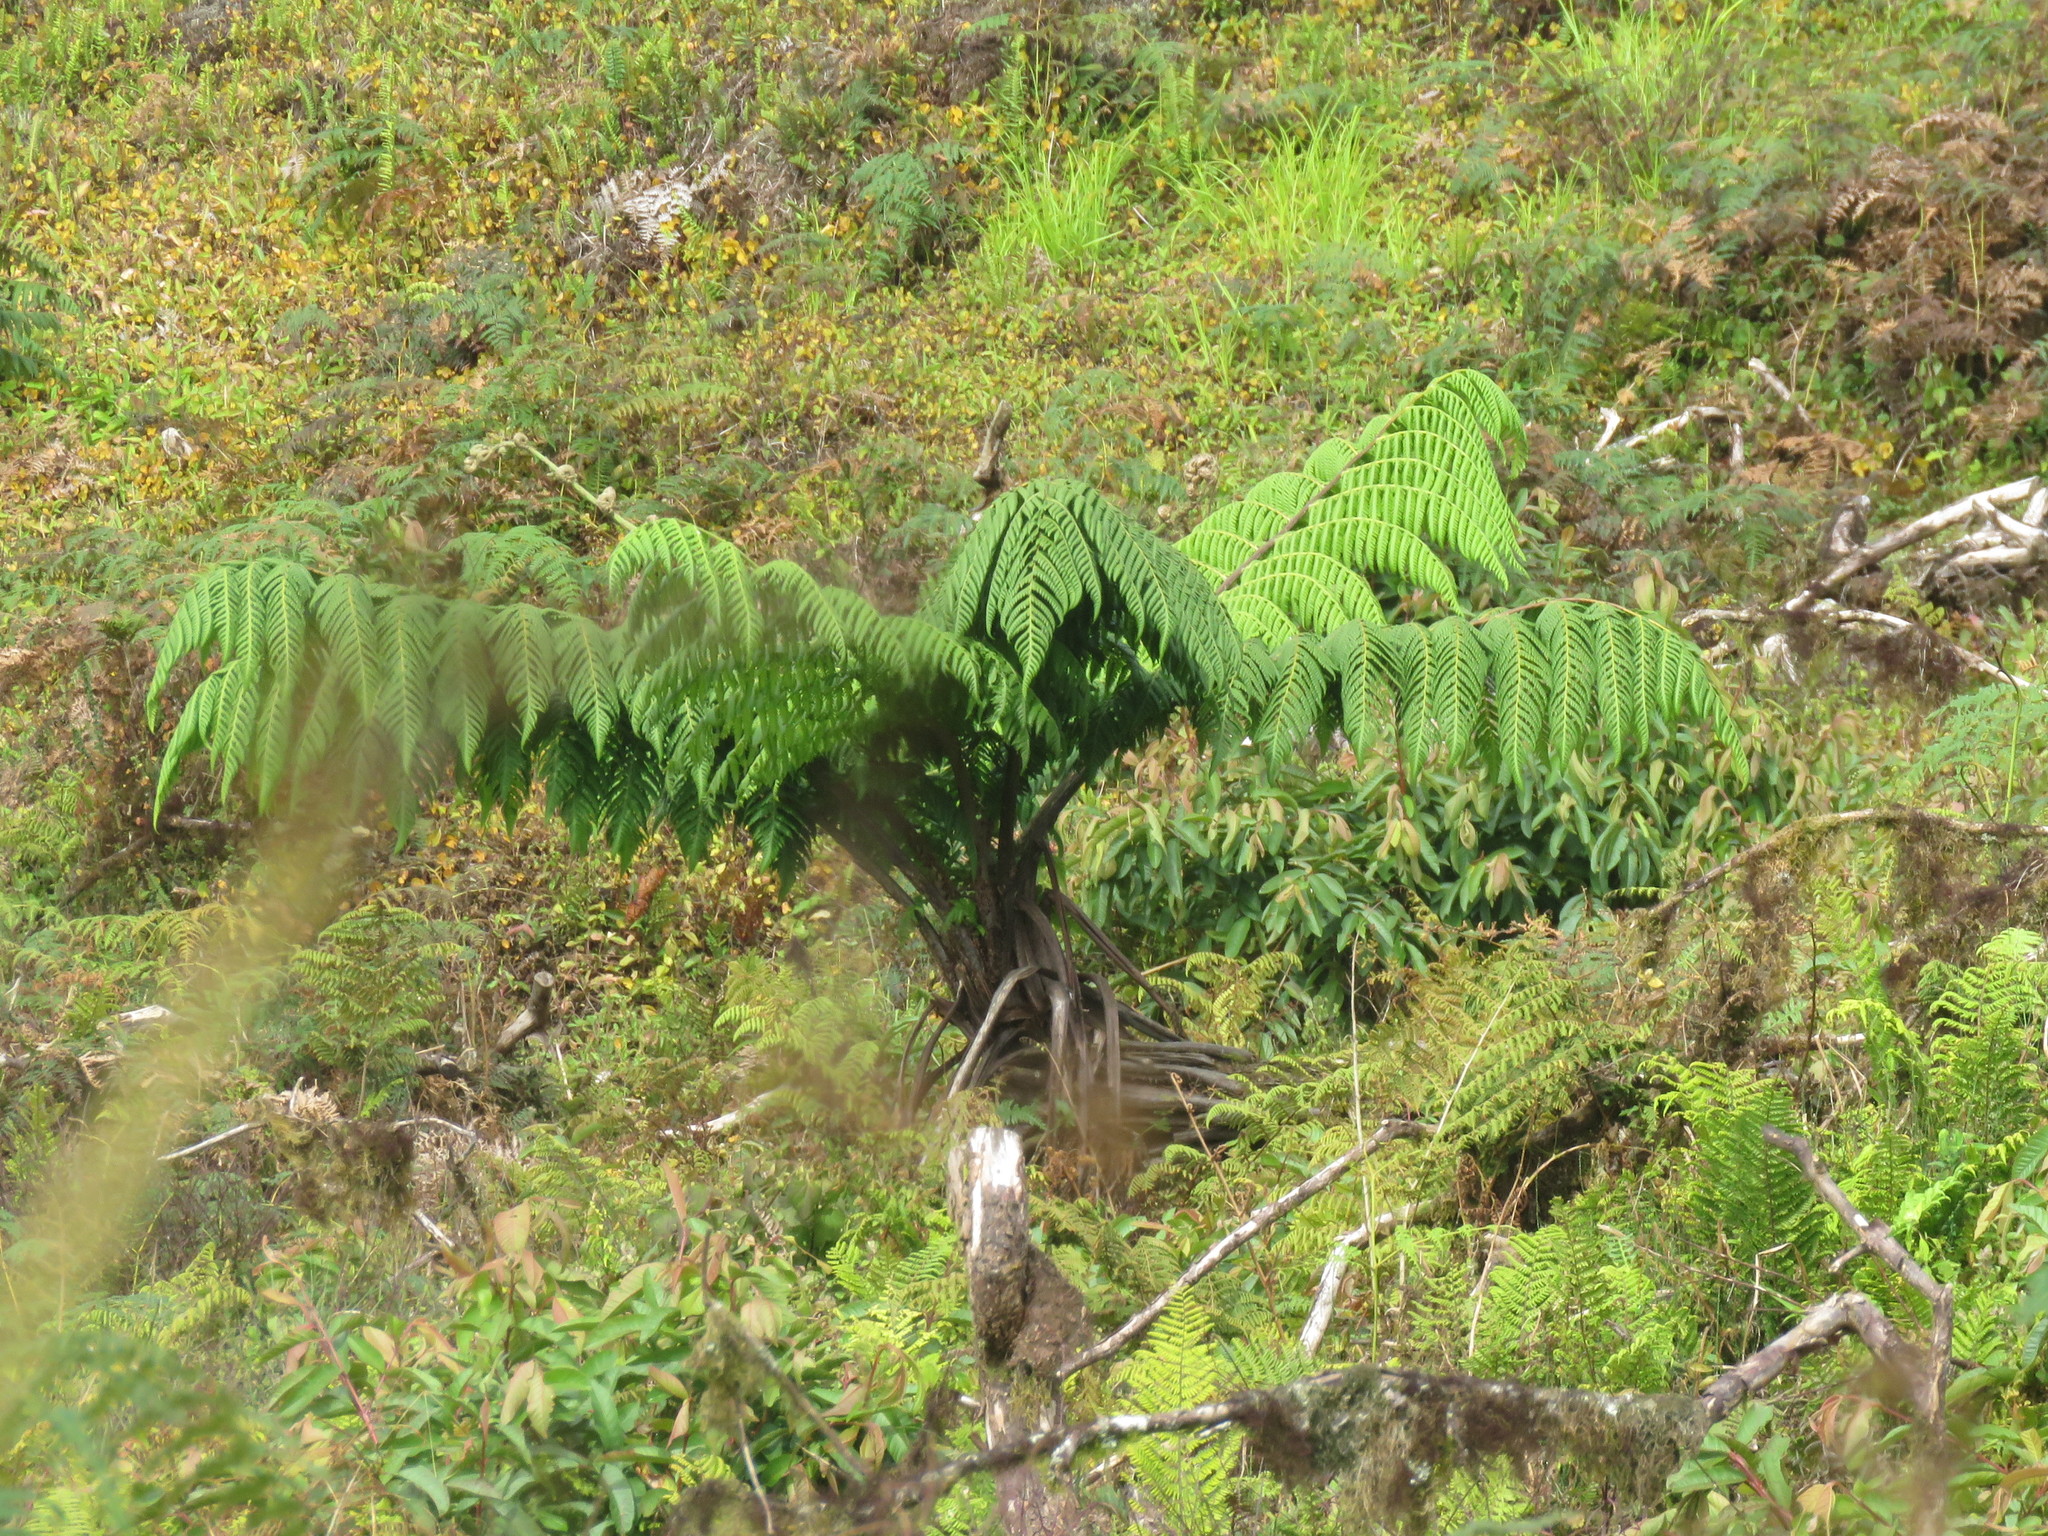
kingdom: Plantae
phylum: Tracheophyta
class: Polypodiopsida
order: Cyatheales
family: Cyatheaceae
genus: Cyathea
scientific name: Cyathea weatherbyana
